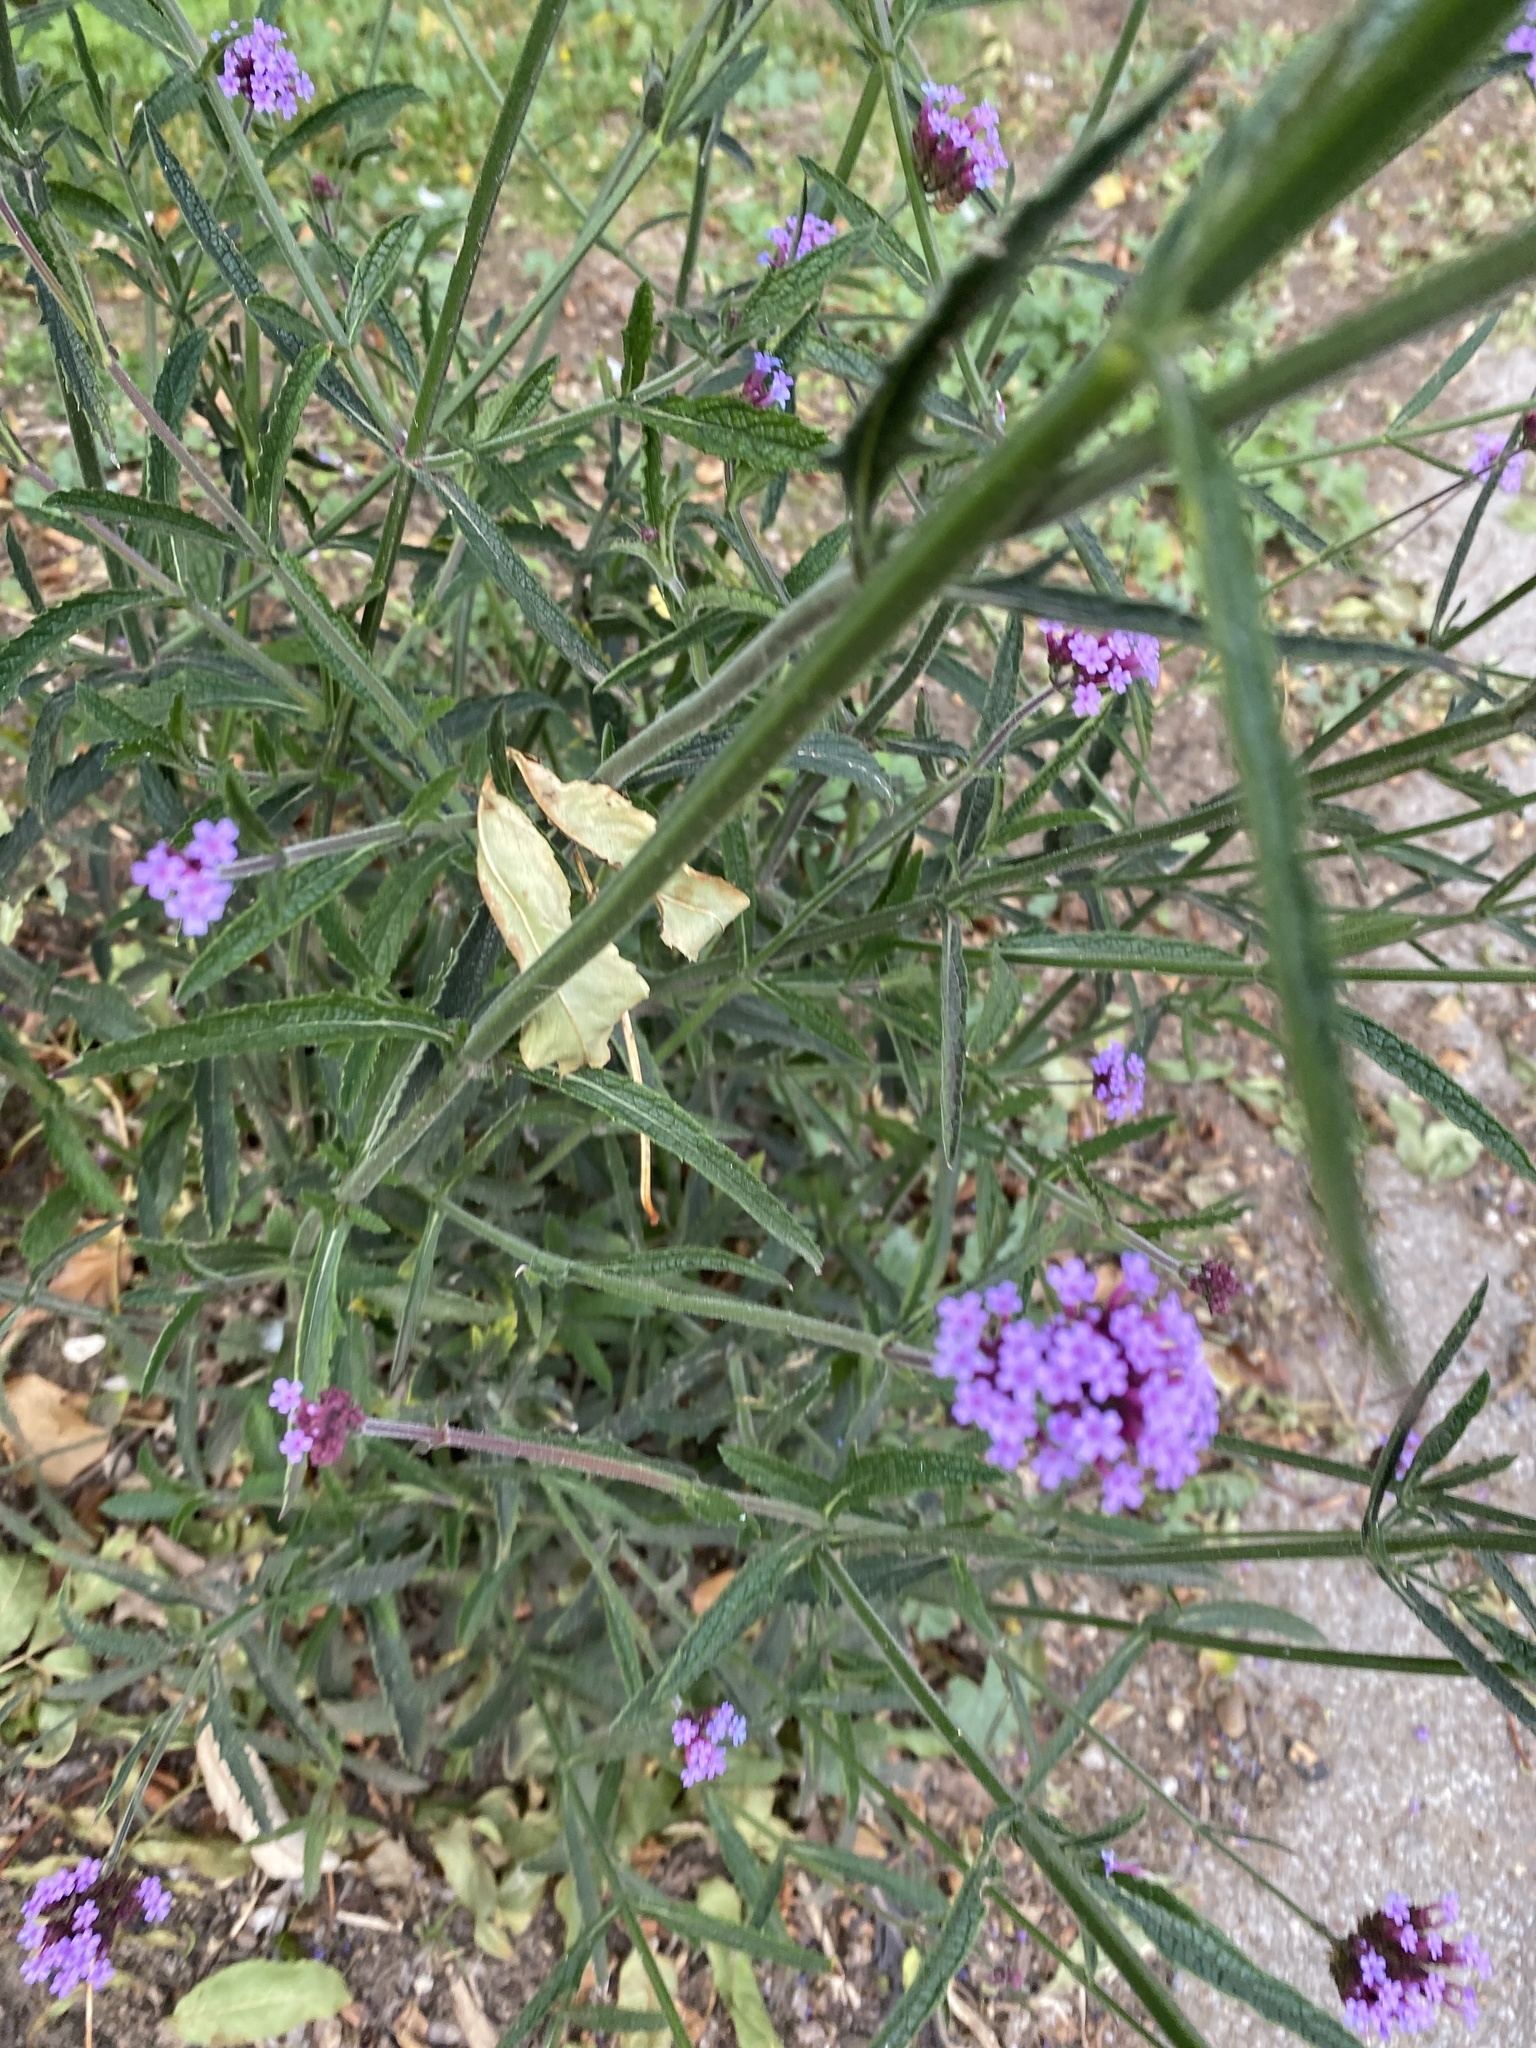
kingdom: Plantae
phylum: Tracheophyta
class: Magnoliopsida
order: Lamiales
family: Verbenaceae
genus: Verbena
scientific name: Verbena bonariensis
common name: Purpletop vervain
